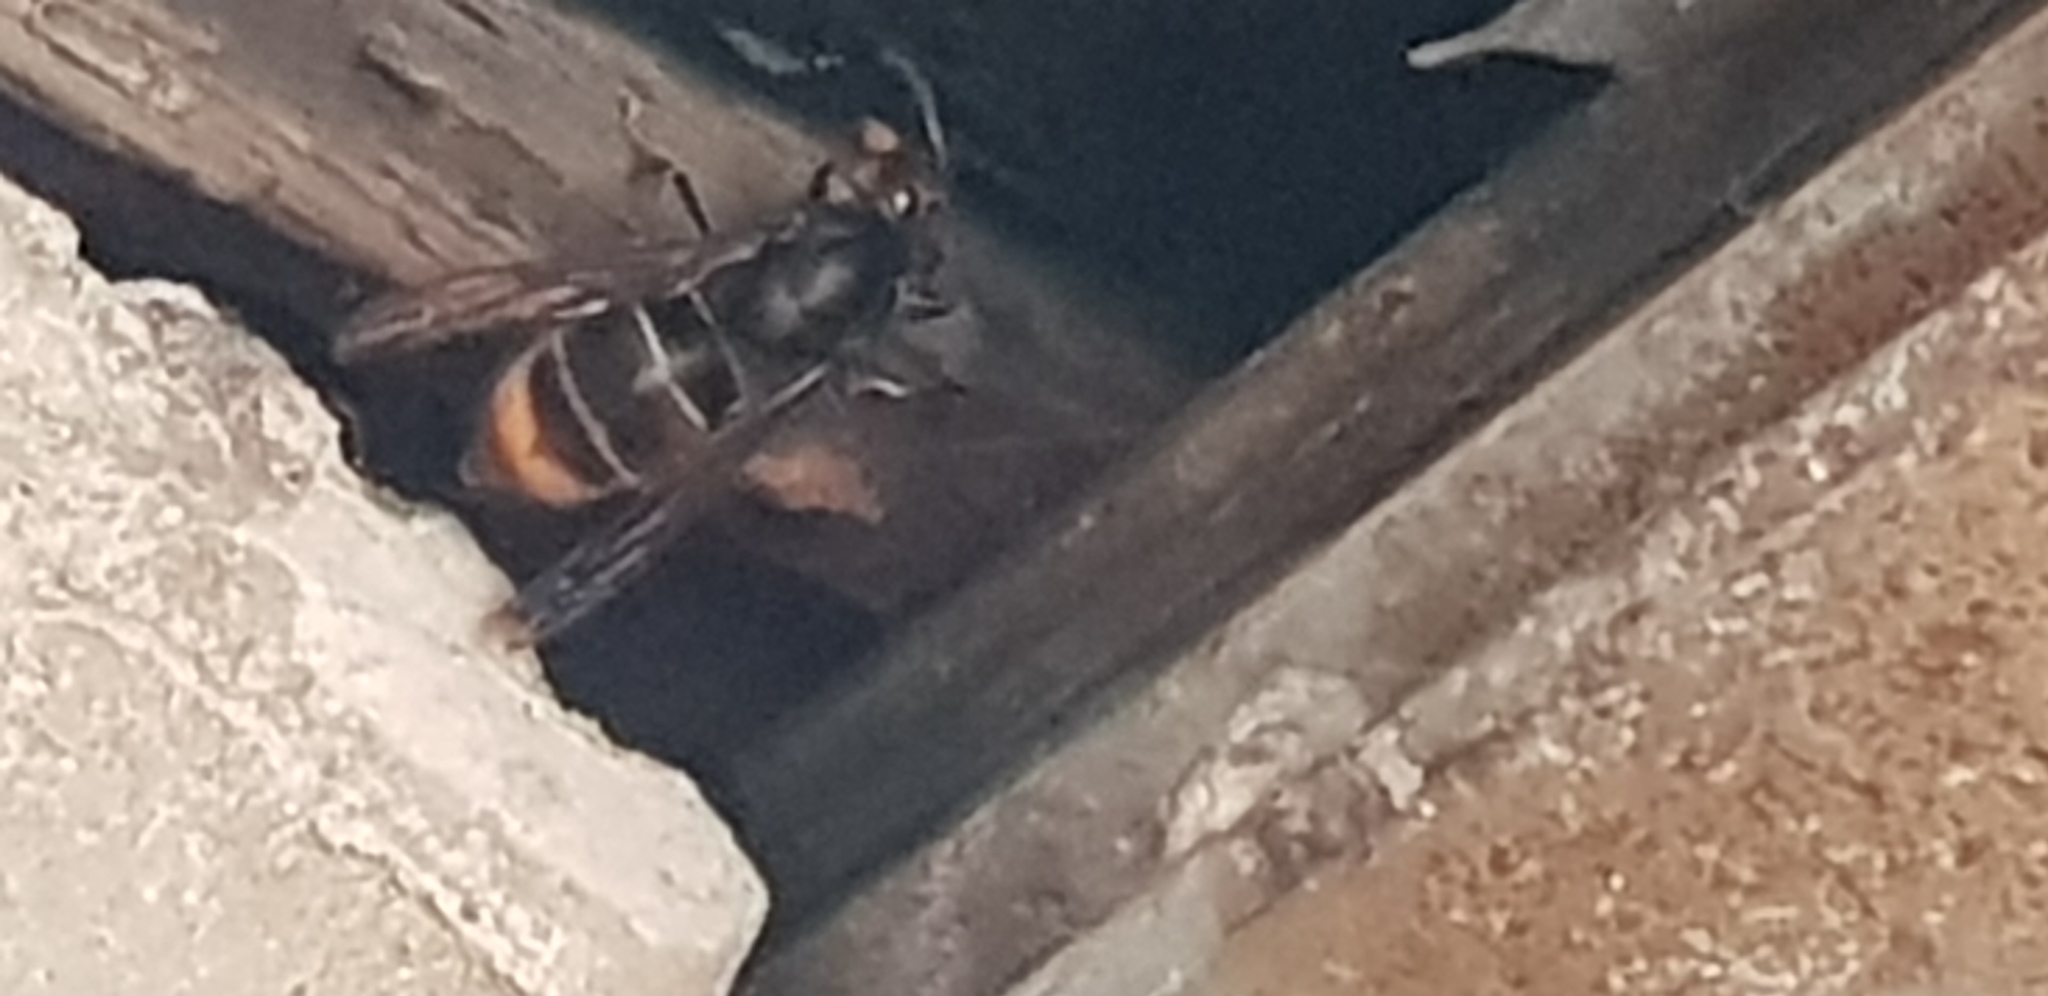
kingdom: Animalia
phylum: Arthropoda
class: Insecta
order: Hymenoptera
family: Vespidae
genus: Vespa
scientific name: Vespa velutina
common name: Asian hornet
